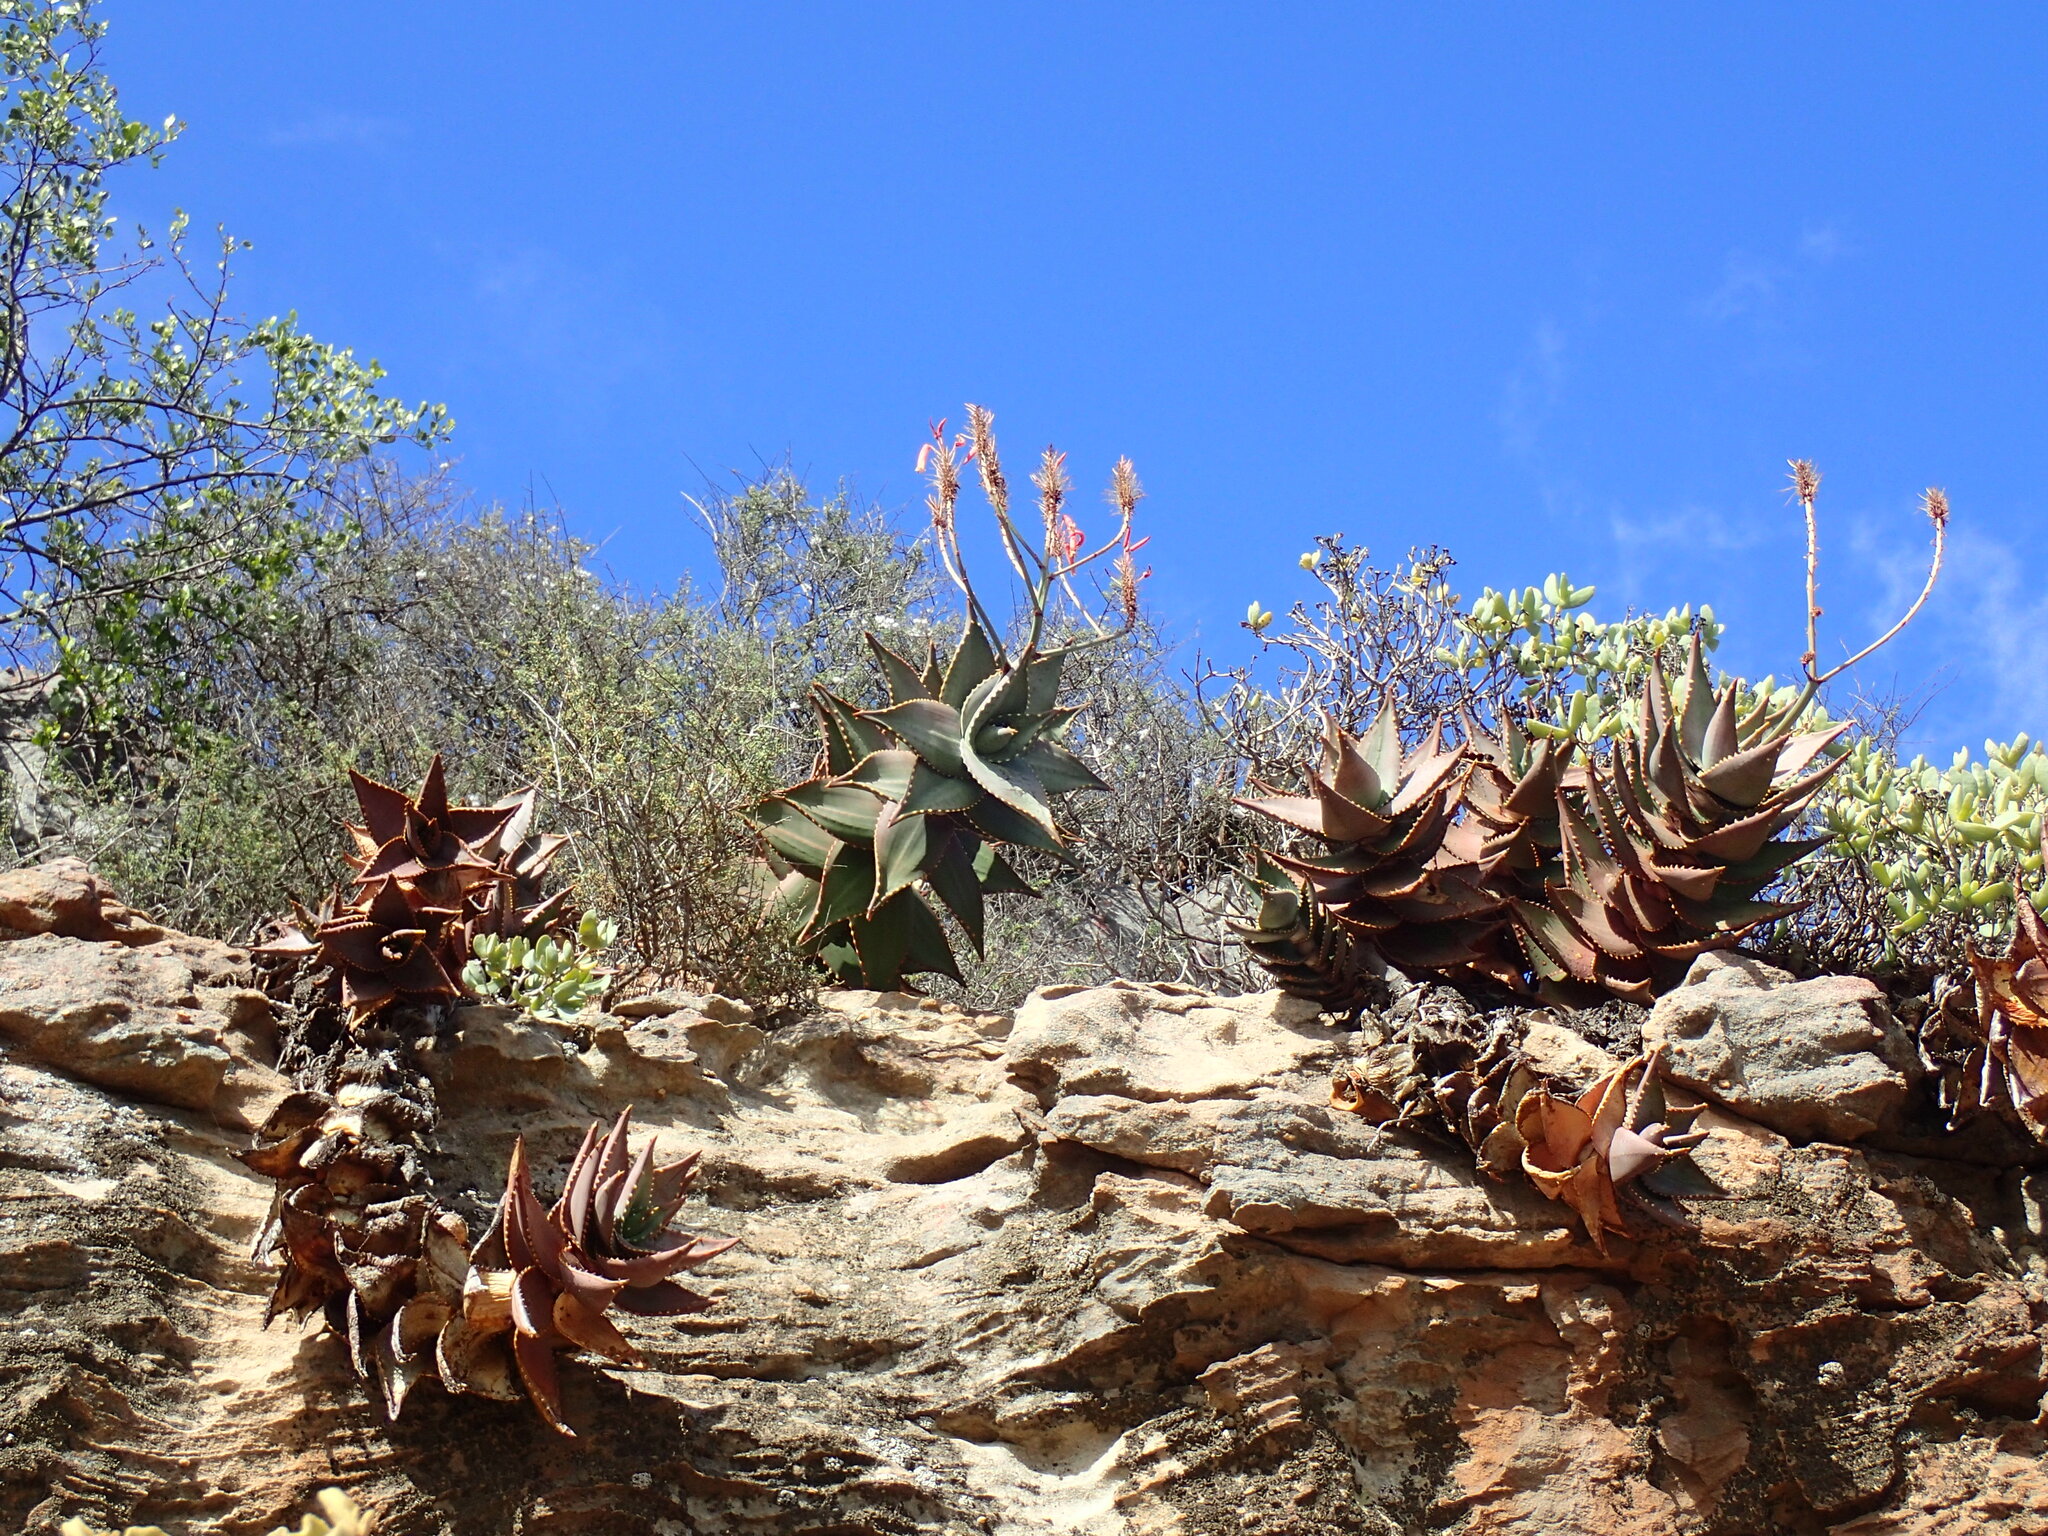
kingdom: Plantae
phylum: Tracheophyta
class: Liliopsida
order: Asparagales
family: Asphodelaceae
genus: Aloe
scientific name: Aloe perfoliata
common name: Mitra aloe
